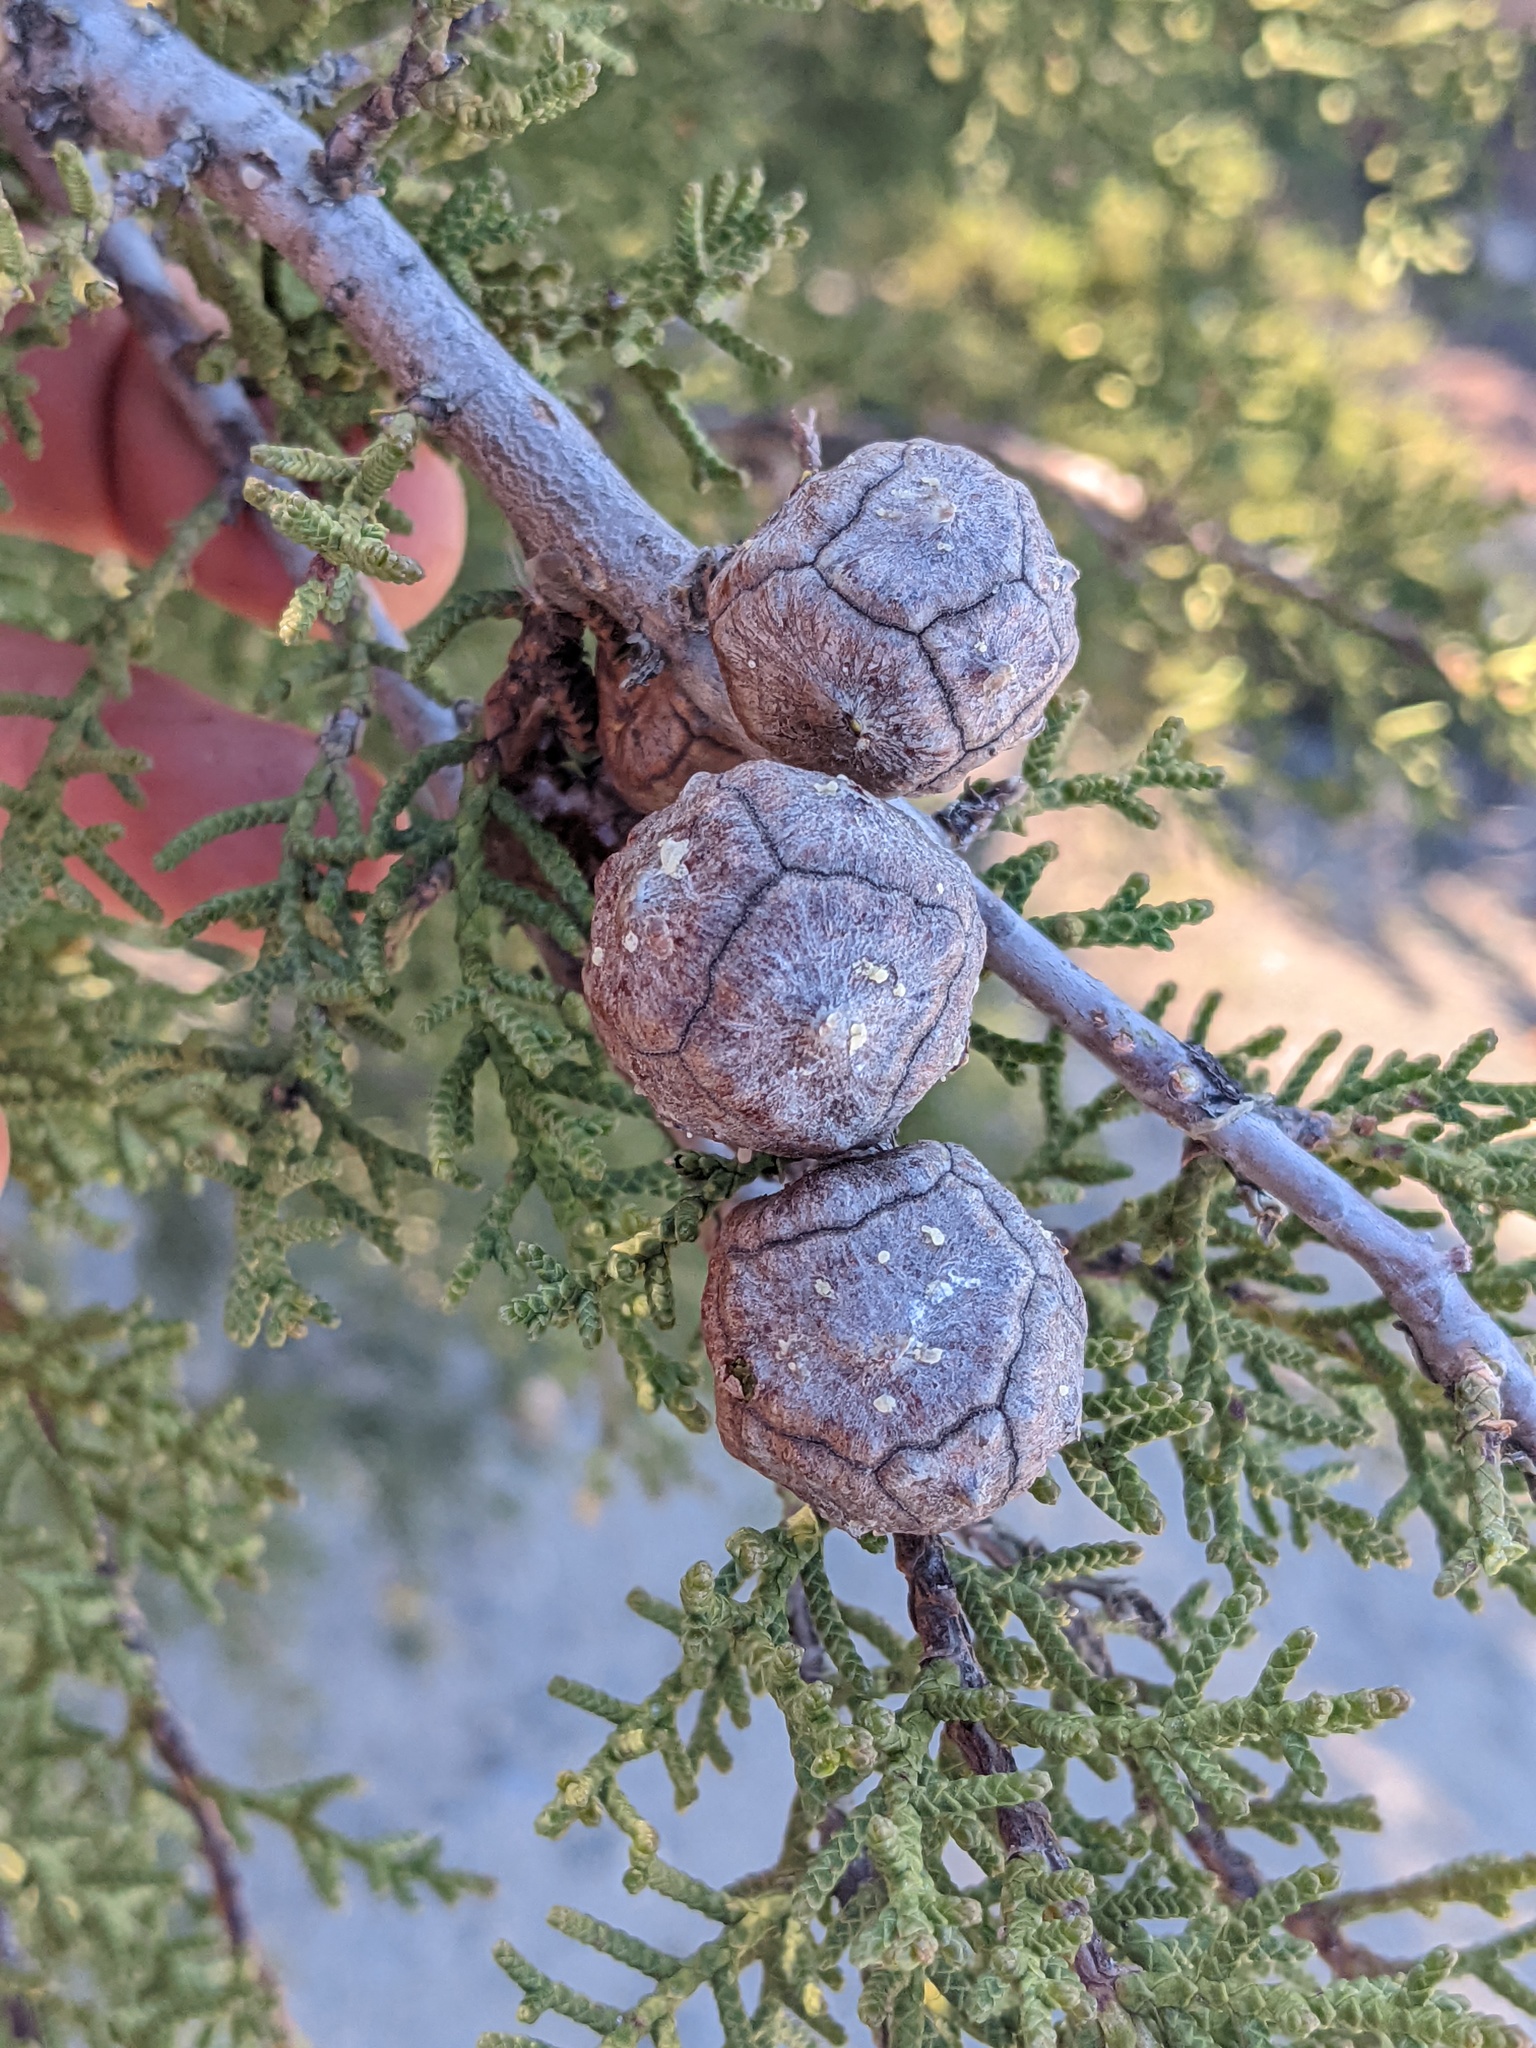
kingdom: Plantae
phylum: Tracheophyta
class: Pinopsida
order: Pinales
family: Cupressaceae
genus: Cupressus
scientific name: Cupressus guadalupensis
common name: Forbes cypress
